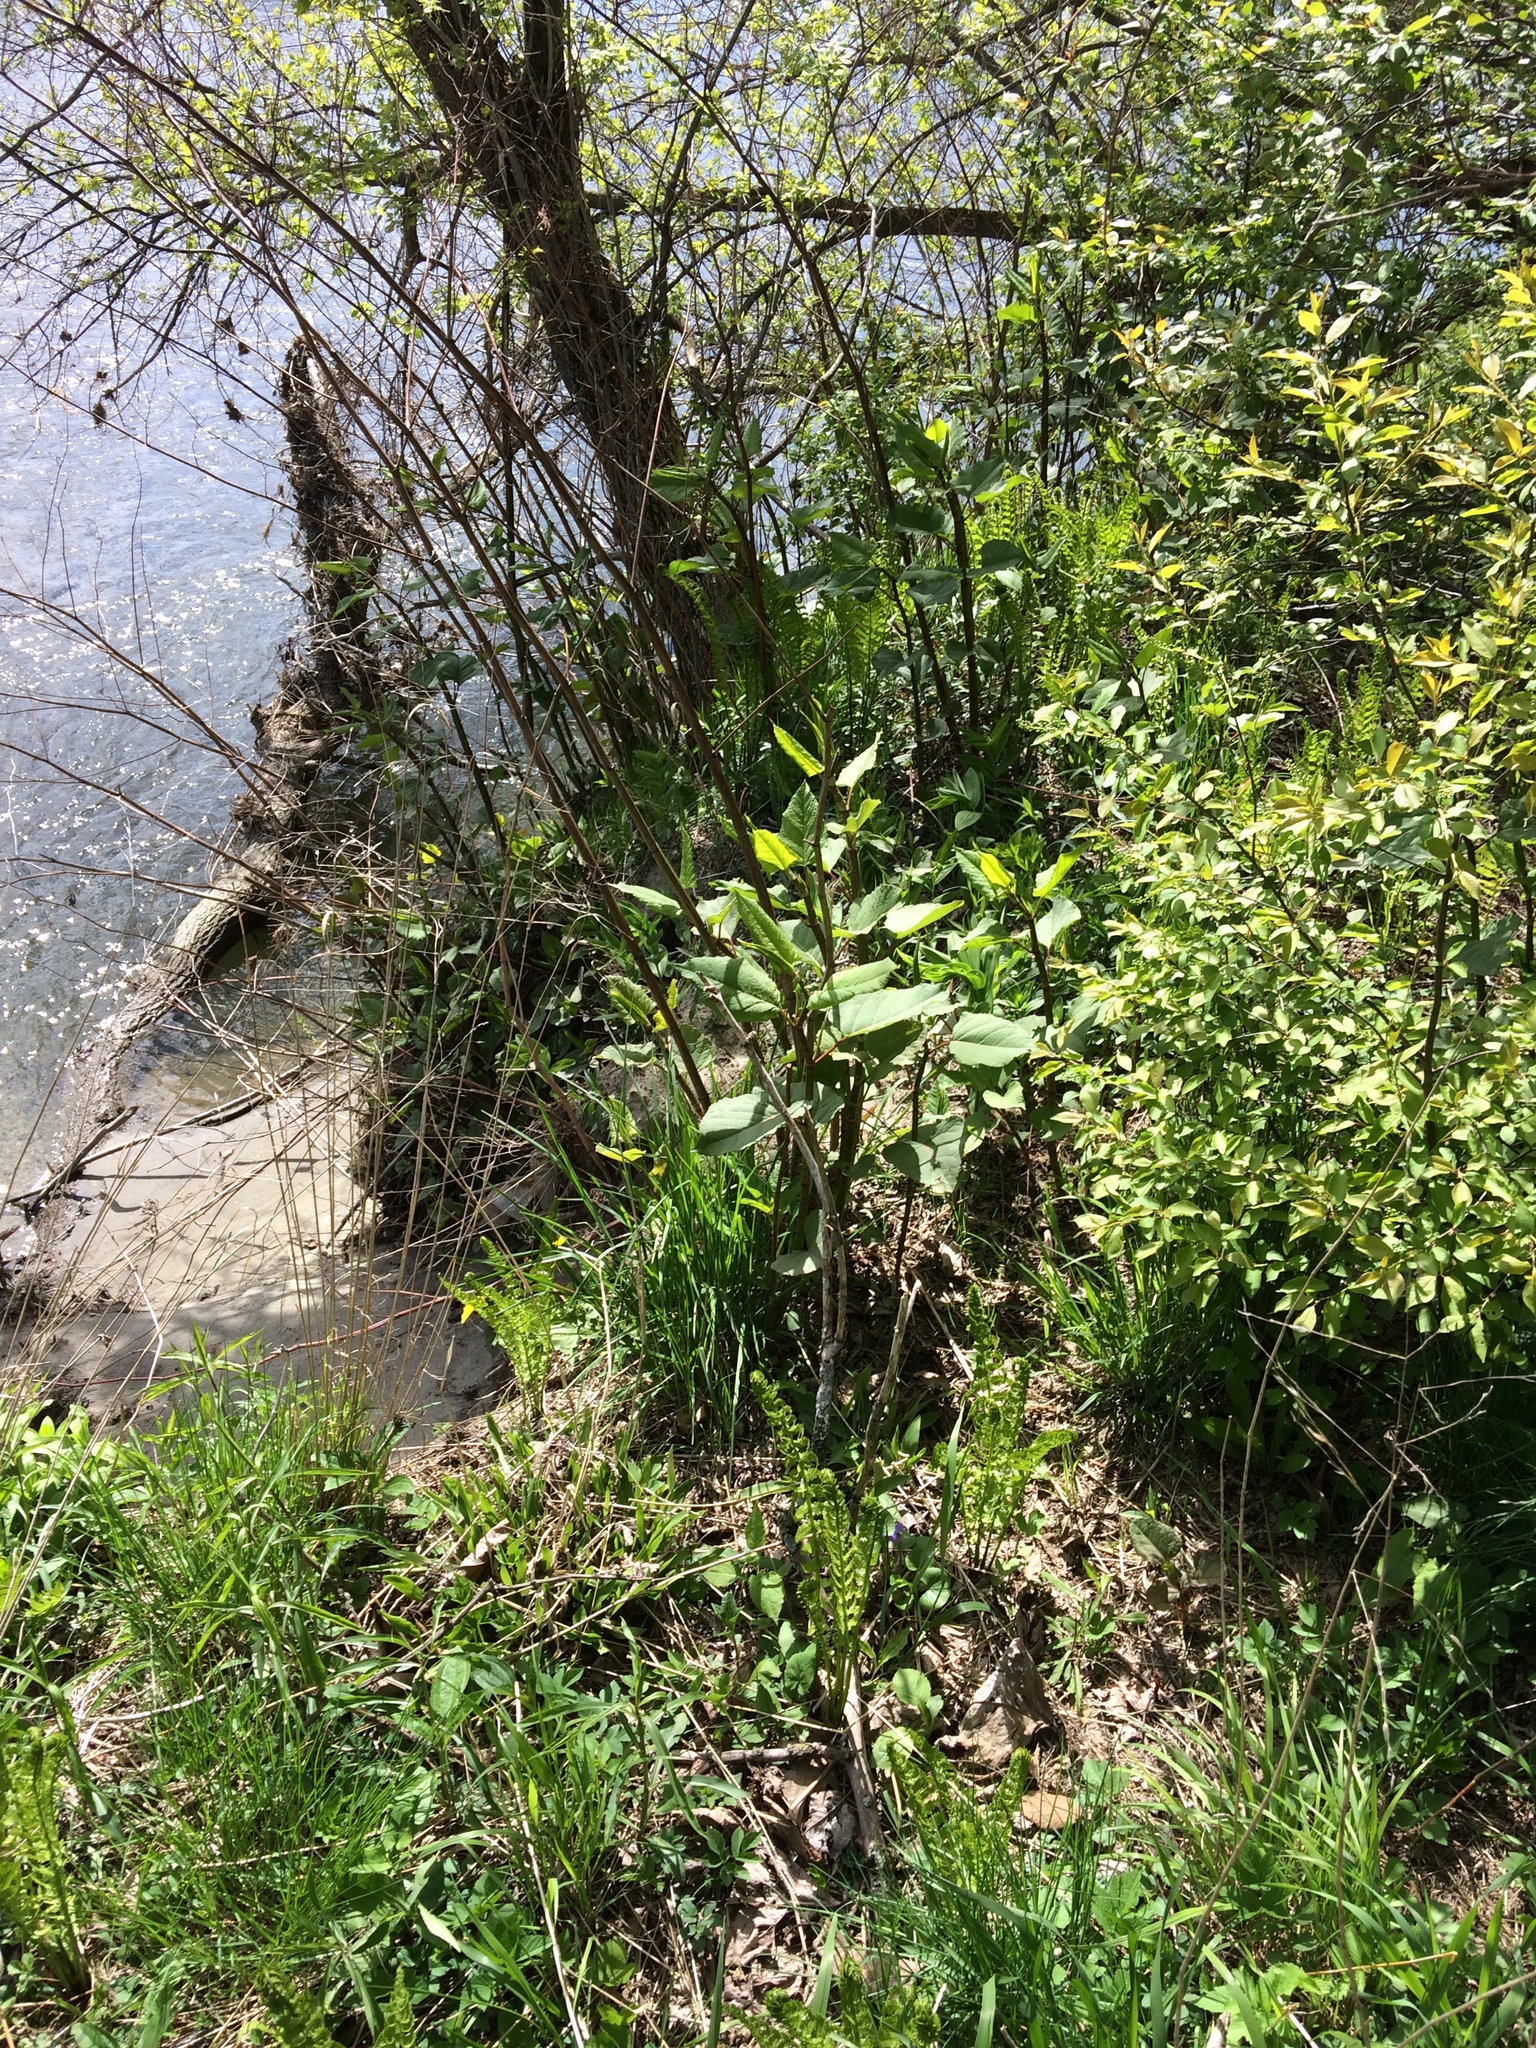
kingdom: Plantae
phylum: Tracheophyta
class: Magnoliopsida
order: Caryophyllales
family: Polygonaceae
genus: Reynoutria
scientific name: Reynoutria japonica
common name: Japanese knotweed
